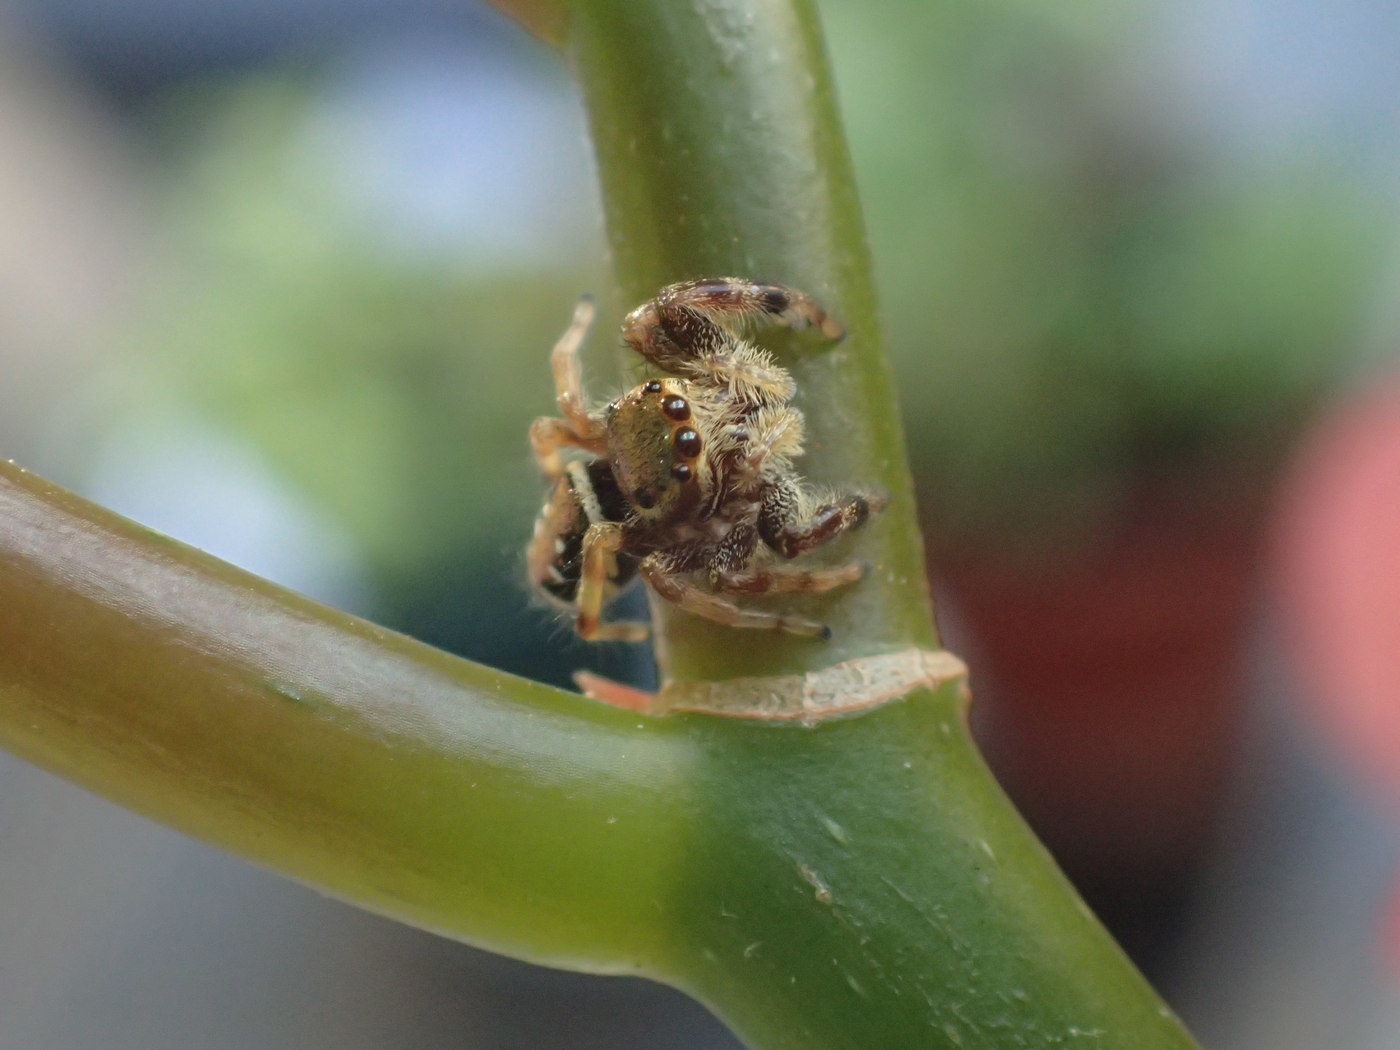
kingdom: Animalia
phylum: Arthropoda
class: Arachnida
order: Araneae
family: Salticidae
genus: Paraphidippus
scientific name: Paraphidippus aurantius
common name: Jumping spiders
